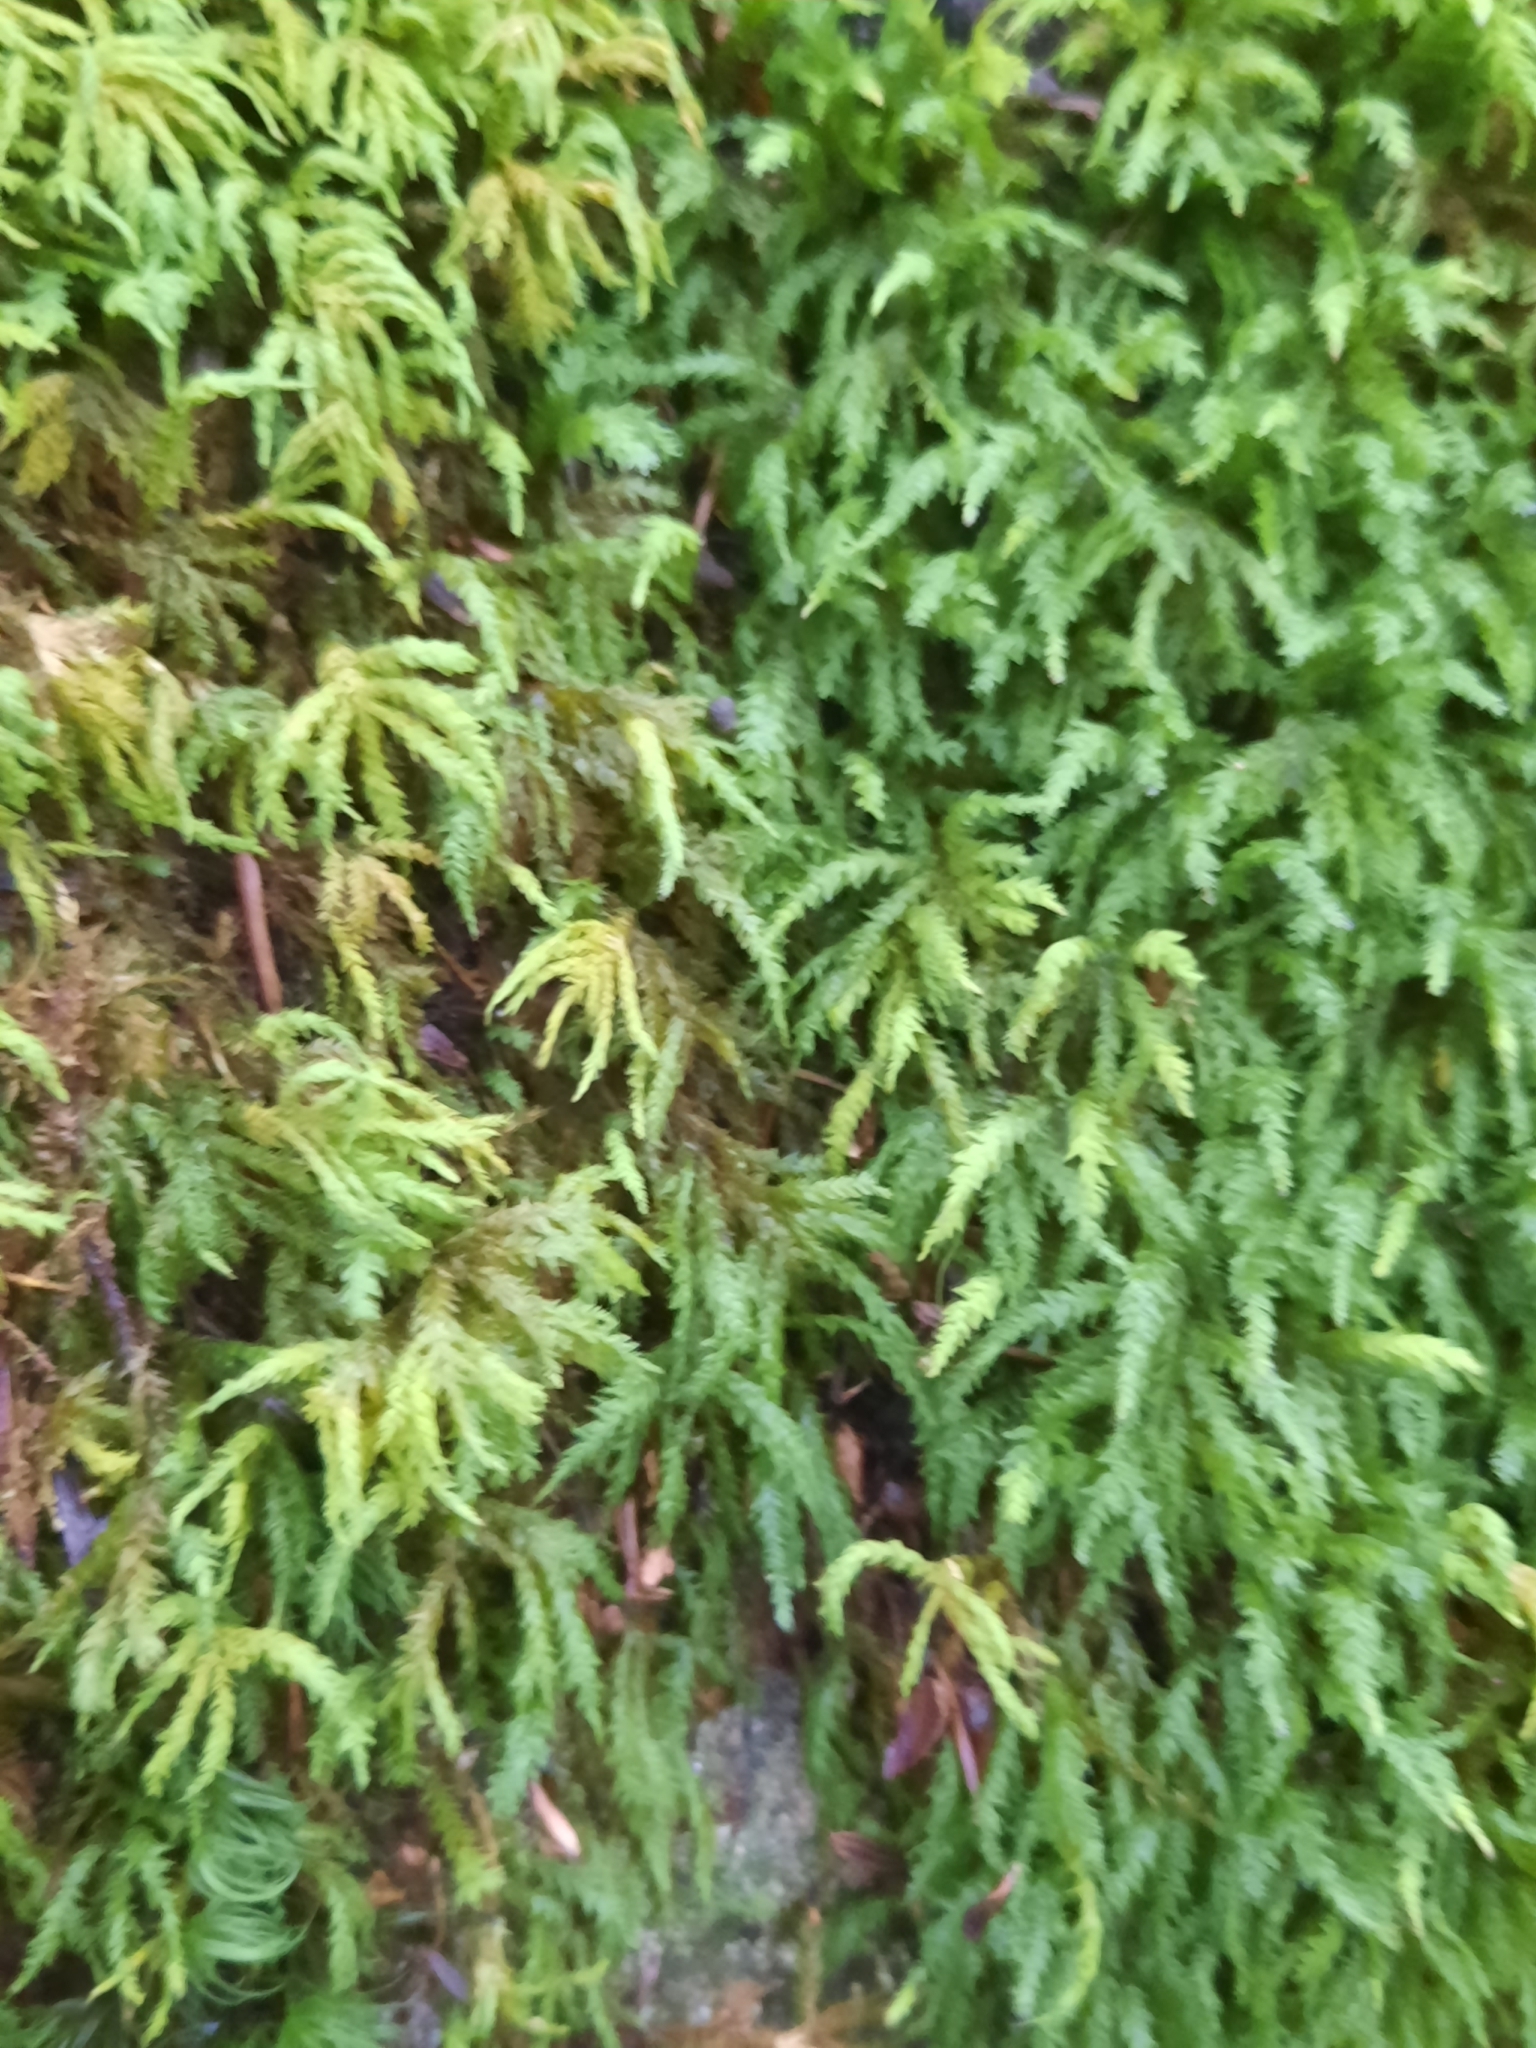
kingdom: Plantae
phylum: Bryophyta
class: Bryopsida
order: Hypnales
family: Neckeraceae
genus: Pseudanomodon
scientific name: Pseudanomodon attenuatus
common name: Tree-skirt moss
